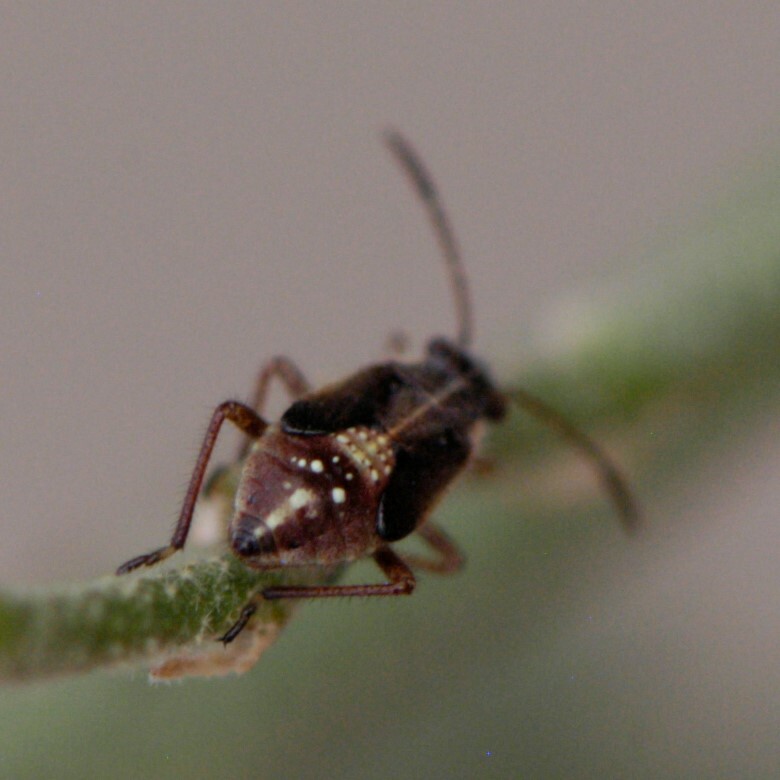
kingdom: Animalia
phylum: Arthropoda
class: Insecta
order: Hemiptera
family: Rhopalidae
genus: Liorhyssus
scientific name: Liorhyssus hyalinus
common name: Scentless plant bug
